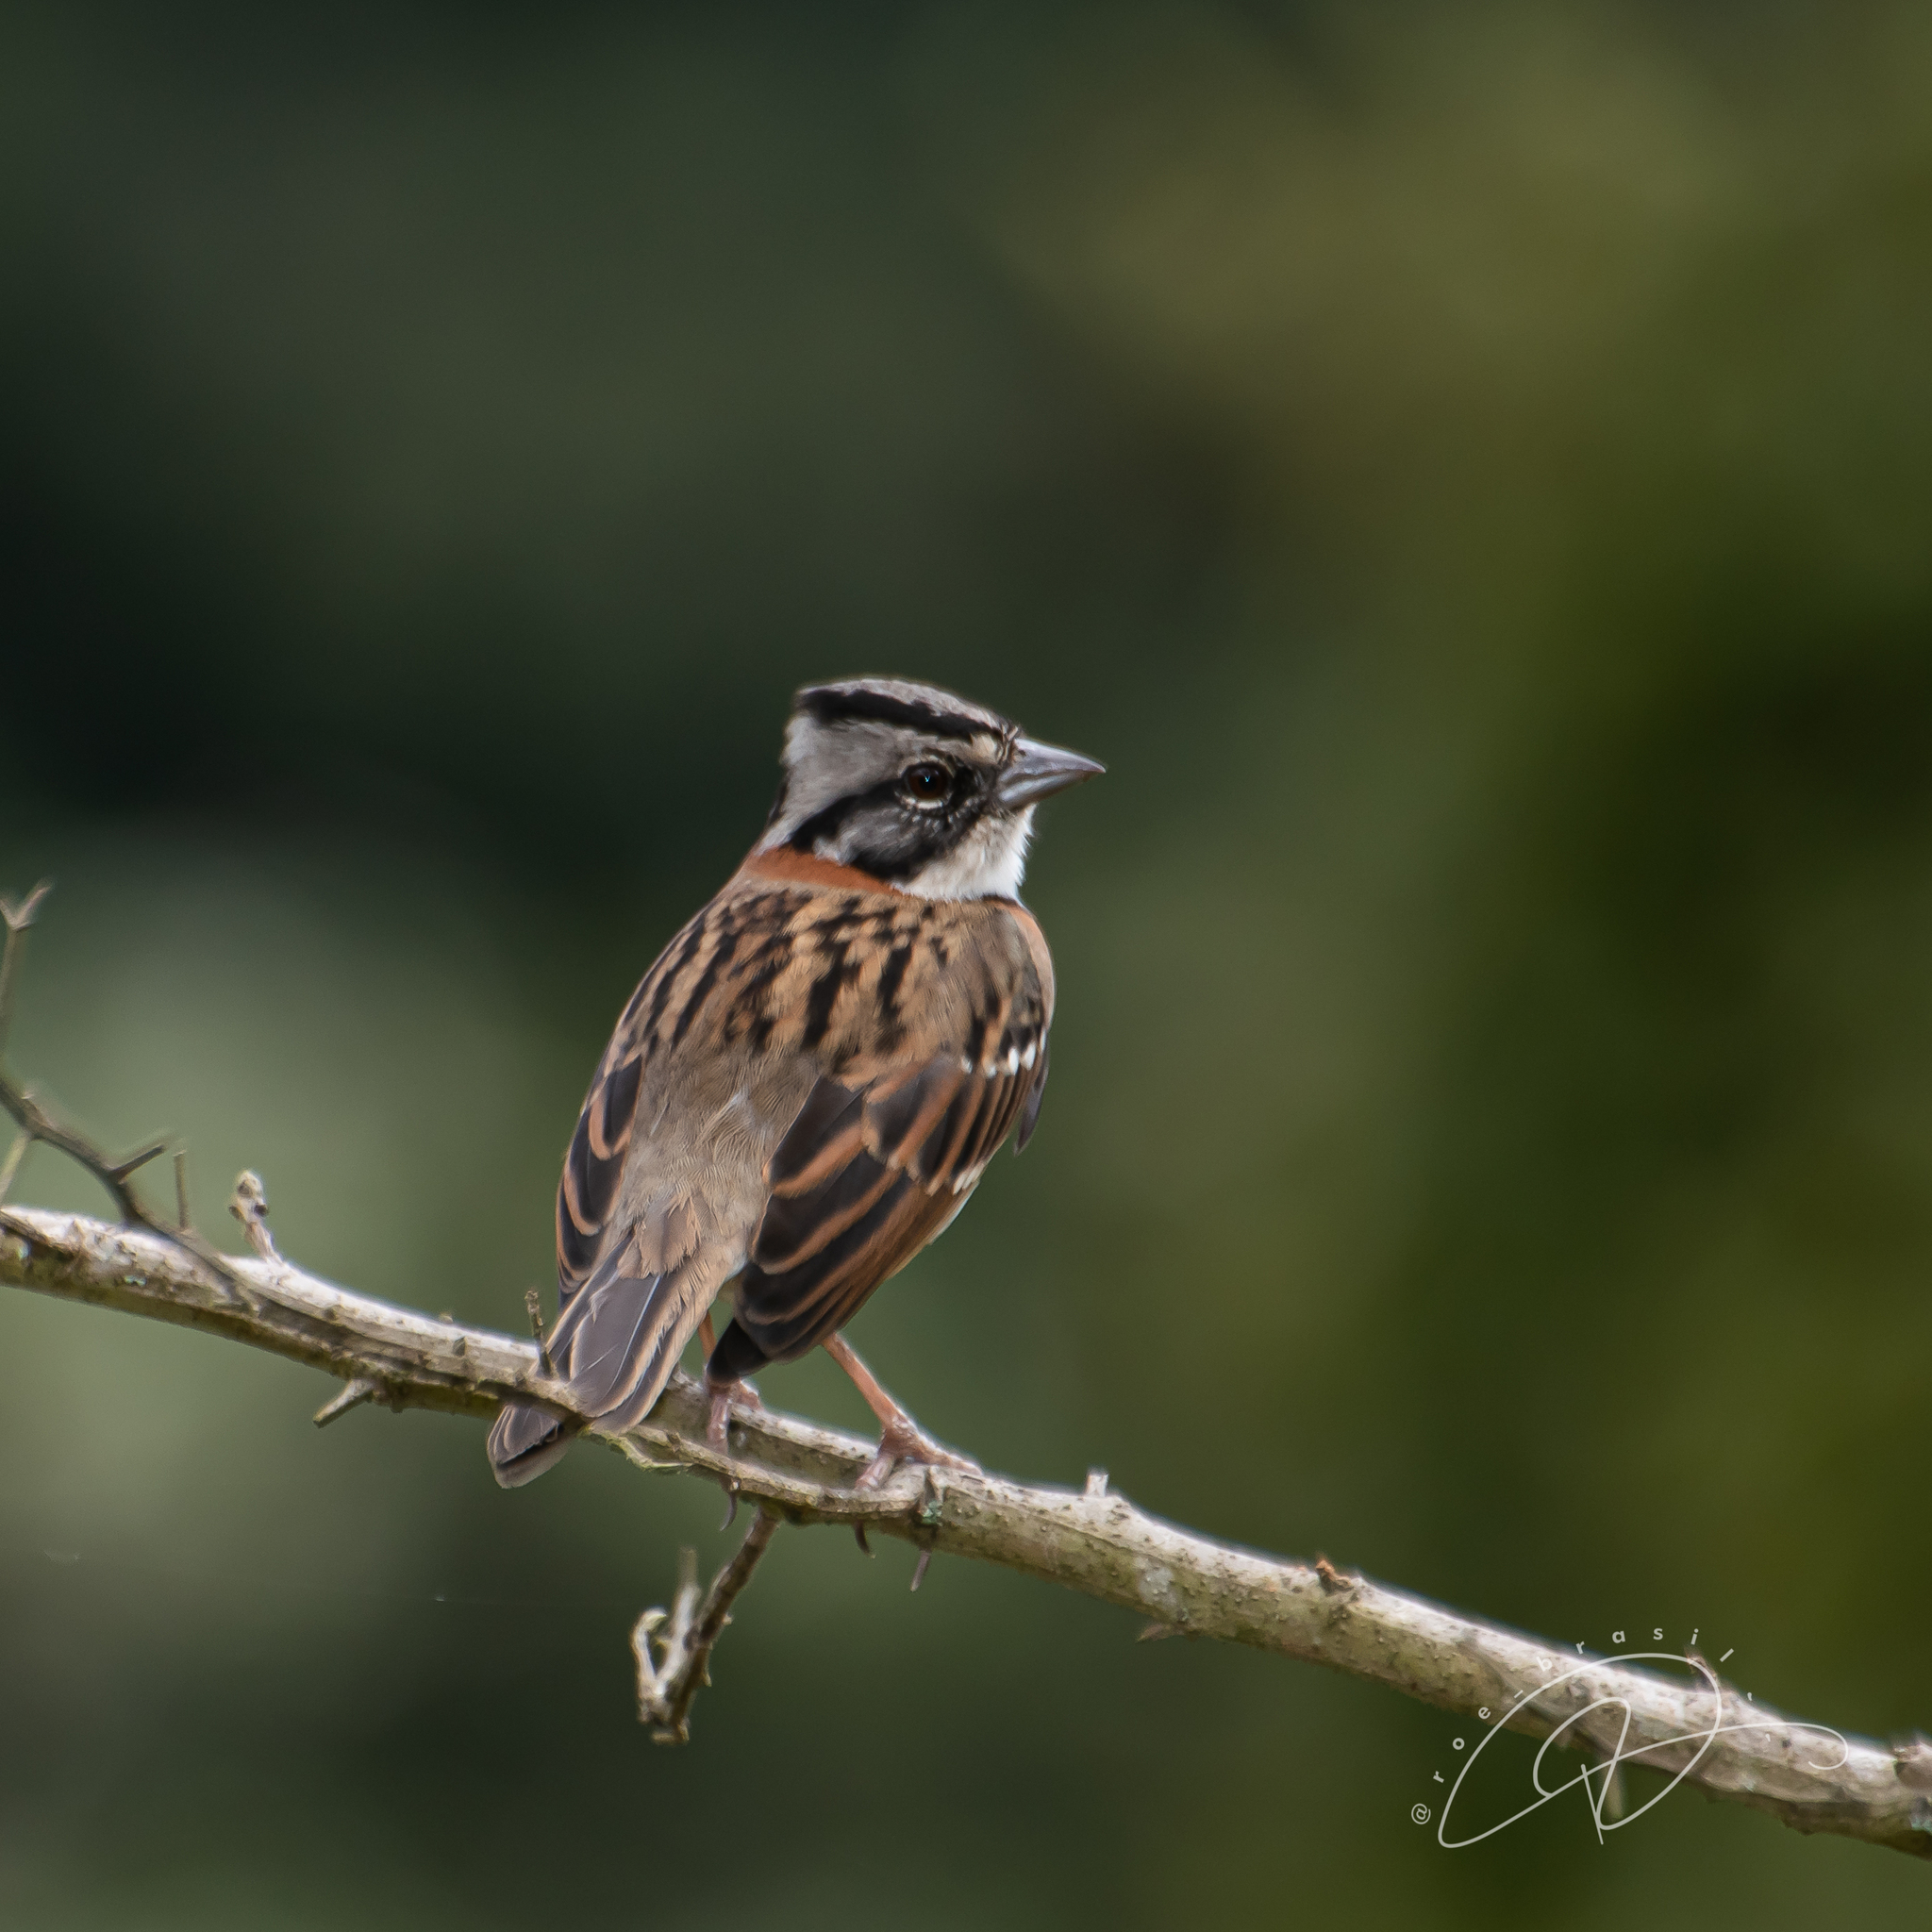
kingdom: Animalia
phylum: Chordata
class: Aves
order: Passeriformes
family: Passerellidae
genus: Zonotrichia
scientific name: Zonotrichia capensis
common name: Rufous-collared sparrow
